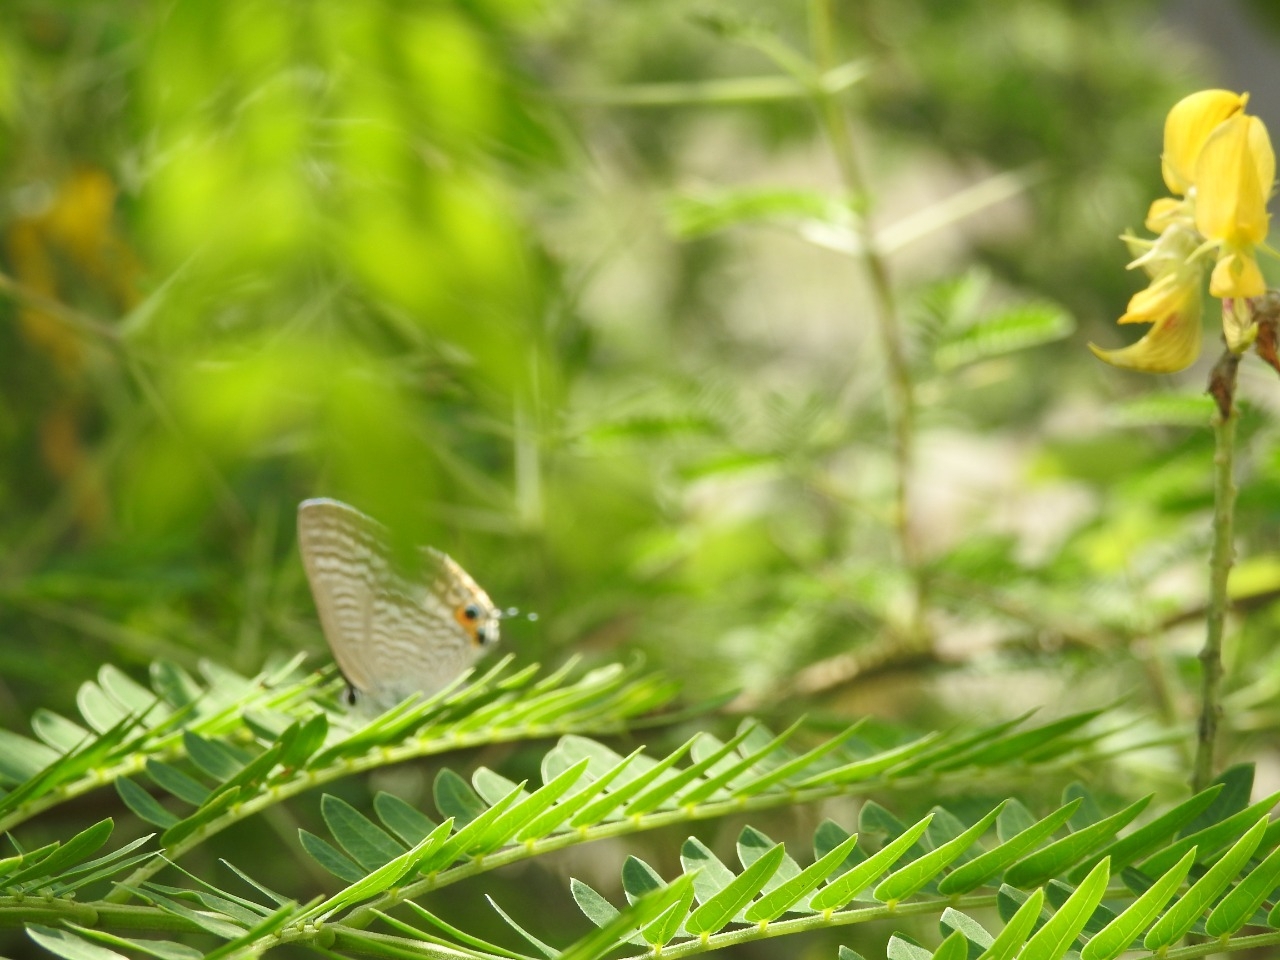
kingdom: Animalia
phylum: Arthropoda
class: Insecta
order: Lepidoptera
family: Lycaenidae
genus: Lampides
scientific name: Lampides boeticus
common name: Long-tailed blue
